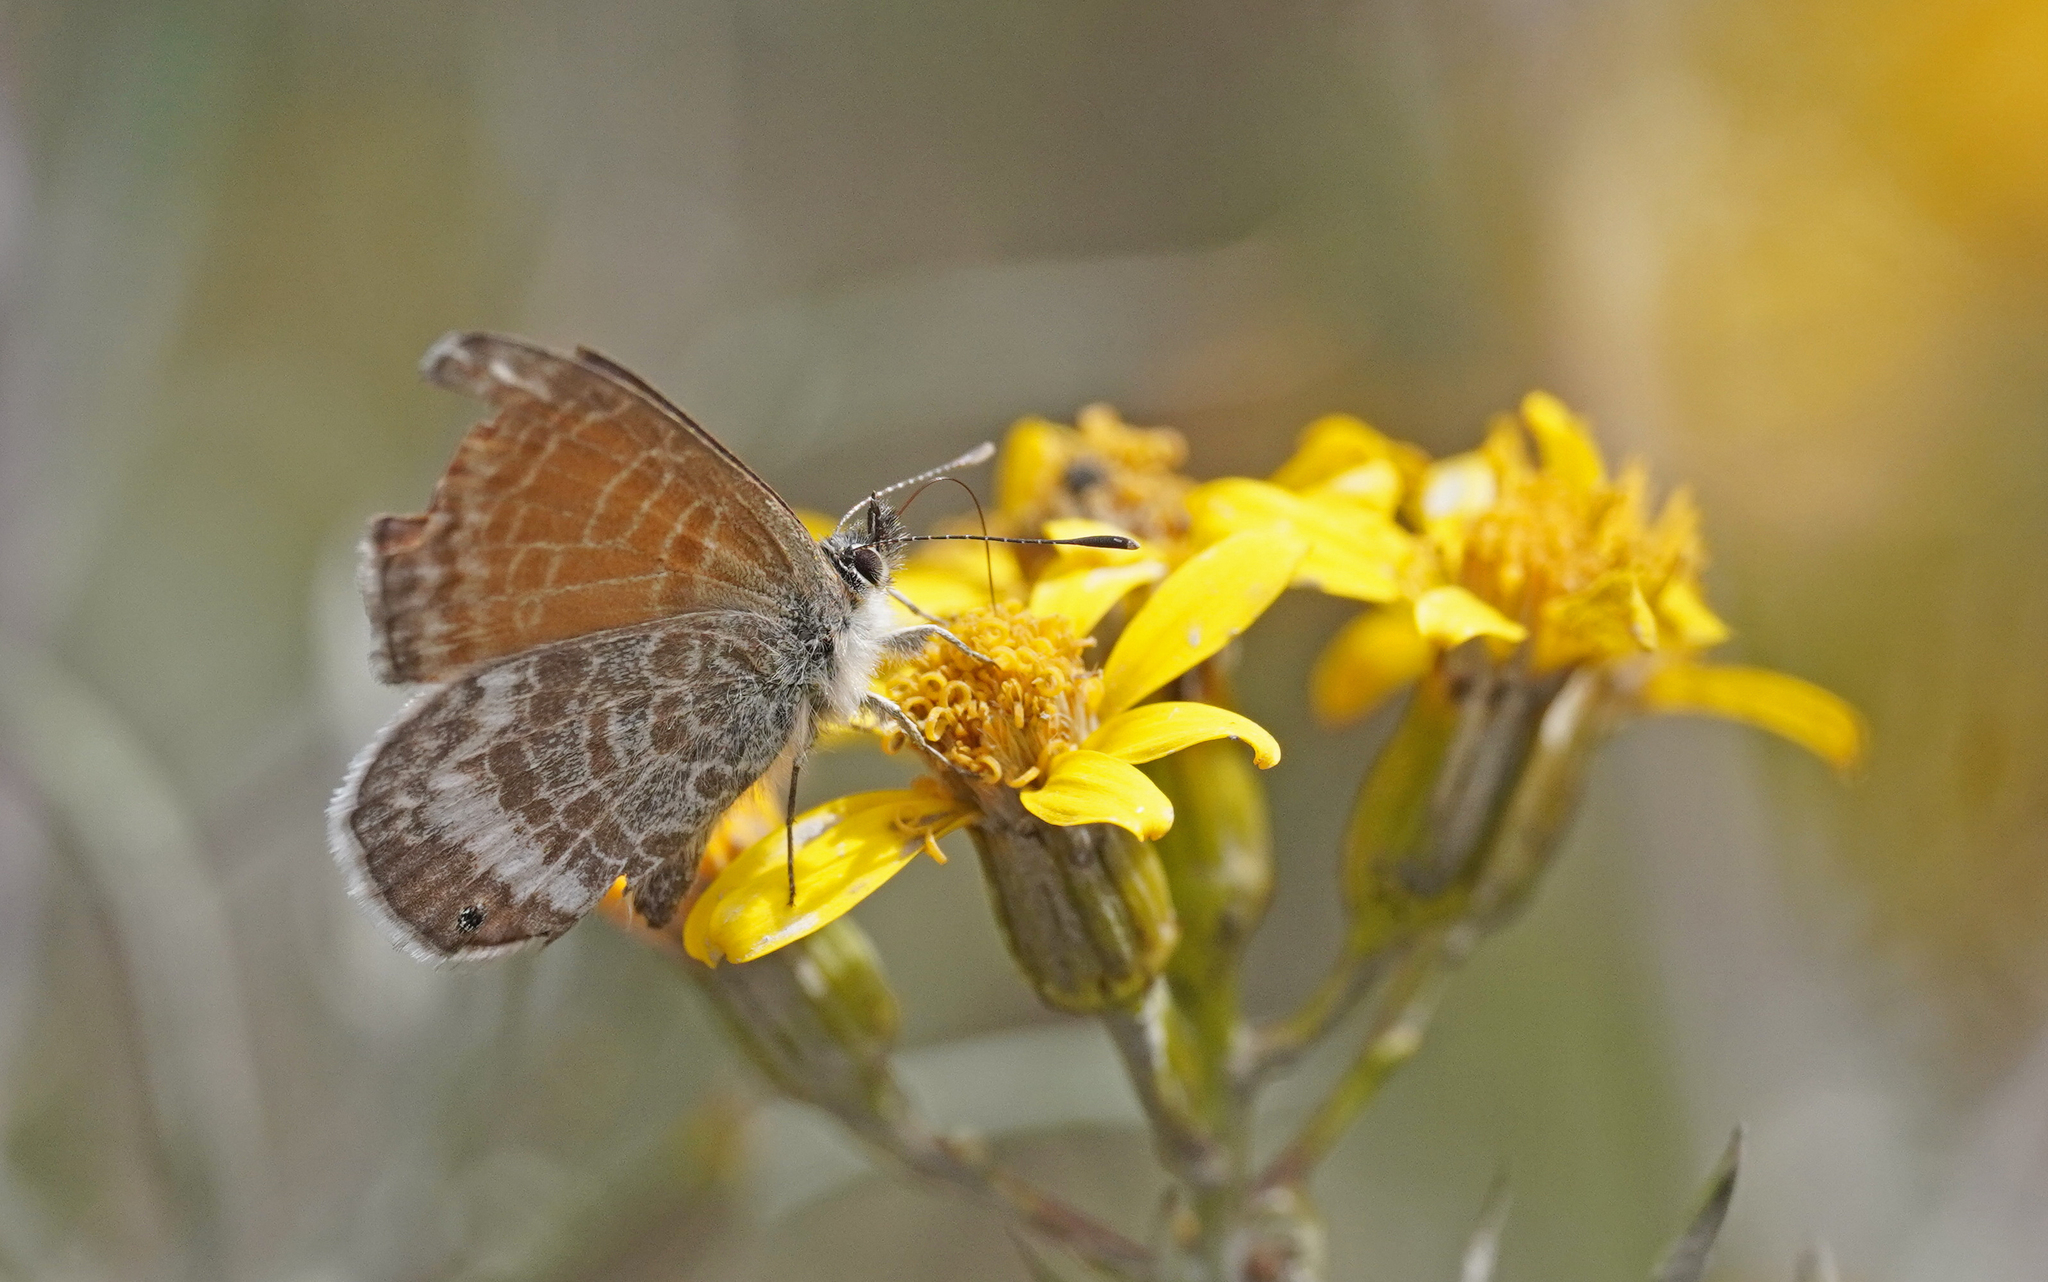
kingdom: Animalia
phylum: Arthropoda
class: Insecta
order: Lepidoptera
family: Lycaenidae
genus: Leptotes
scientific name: Leptotes callanga
